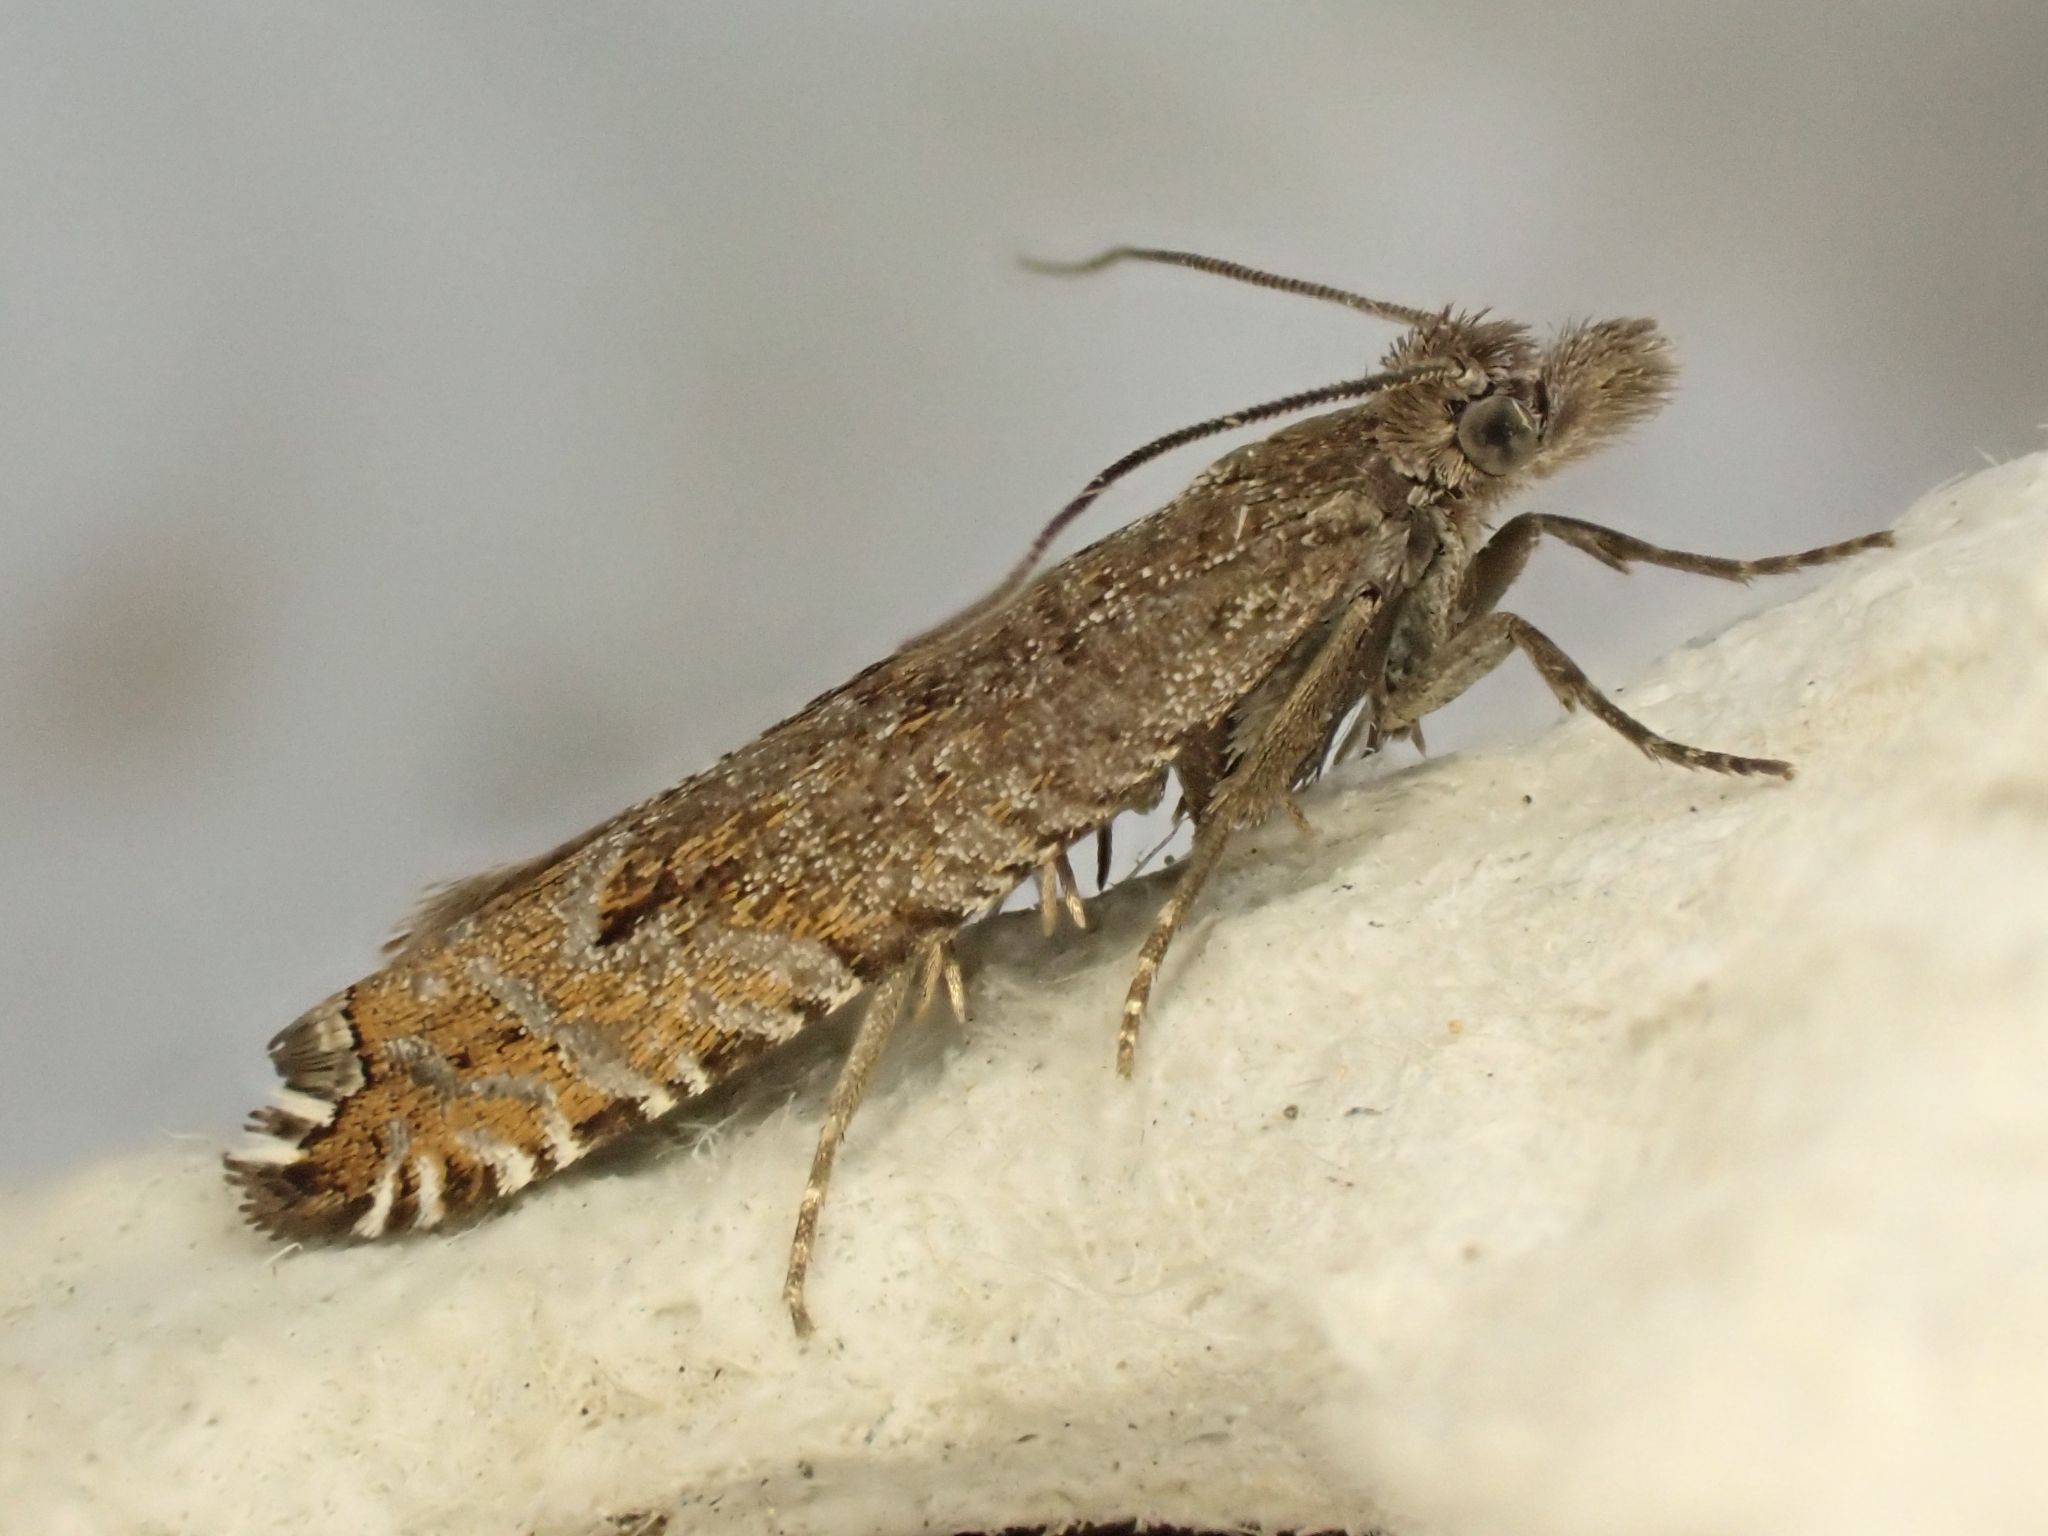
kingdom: Animalia
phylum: Arthropoda
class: Insecta
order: Lepidoptera
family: Tortricidae
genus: Ancylis
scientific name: Ancylis unguicella
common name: Broken-barred roller
